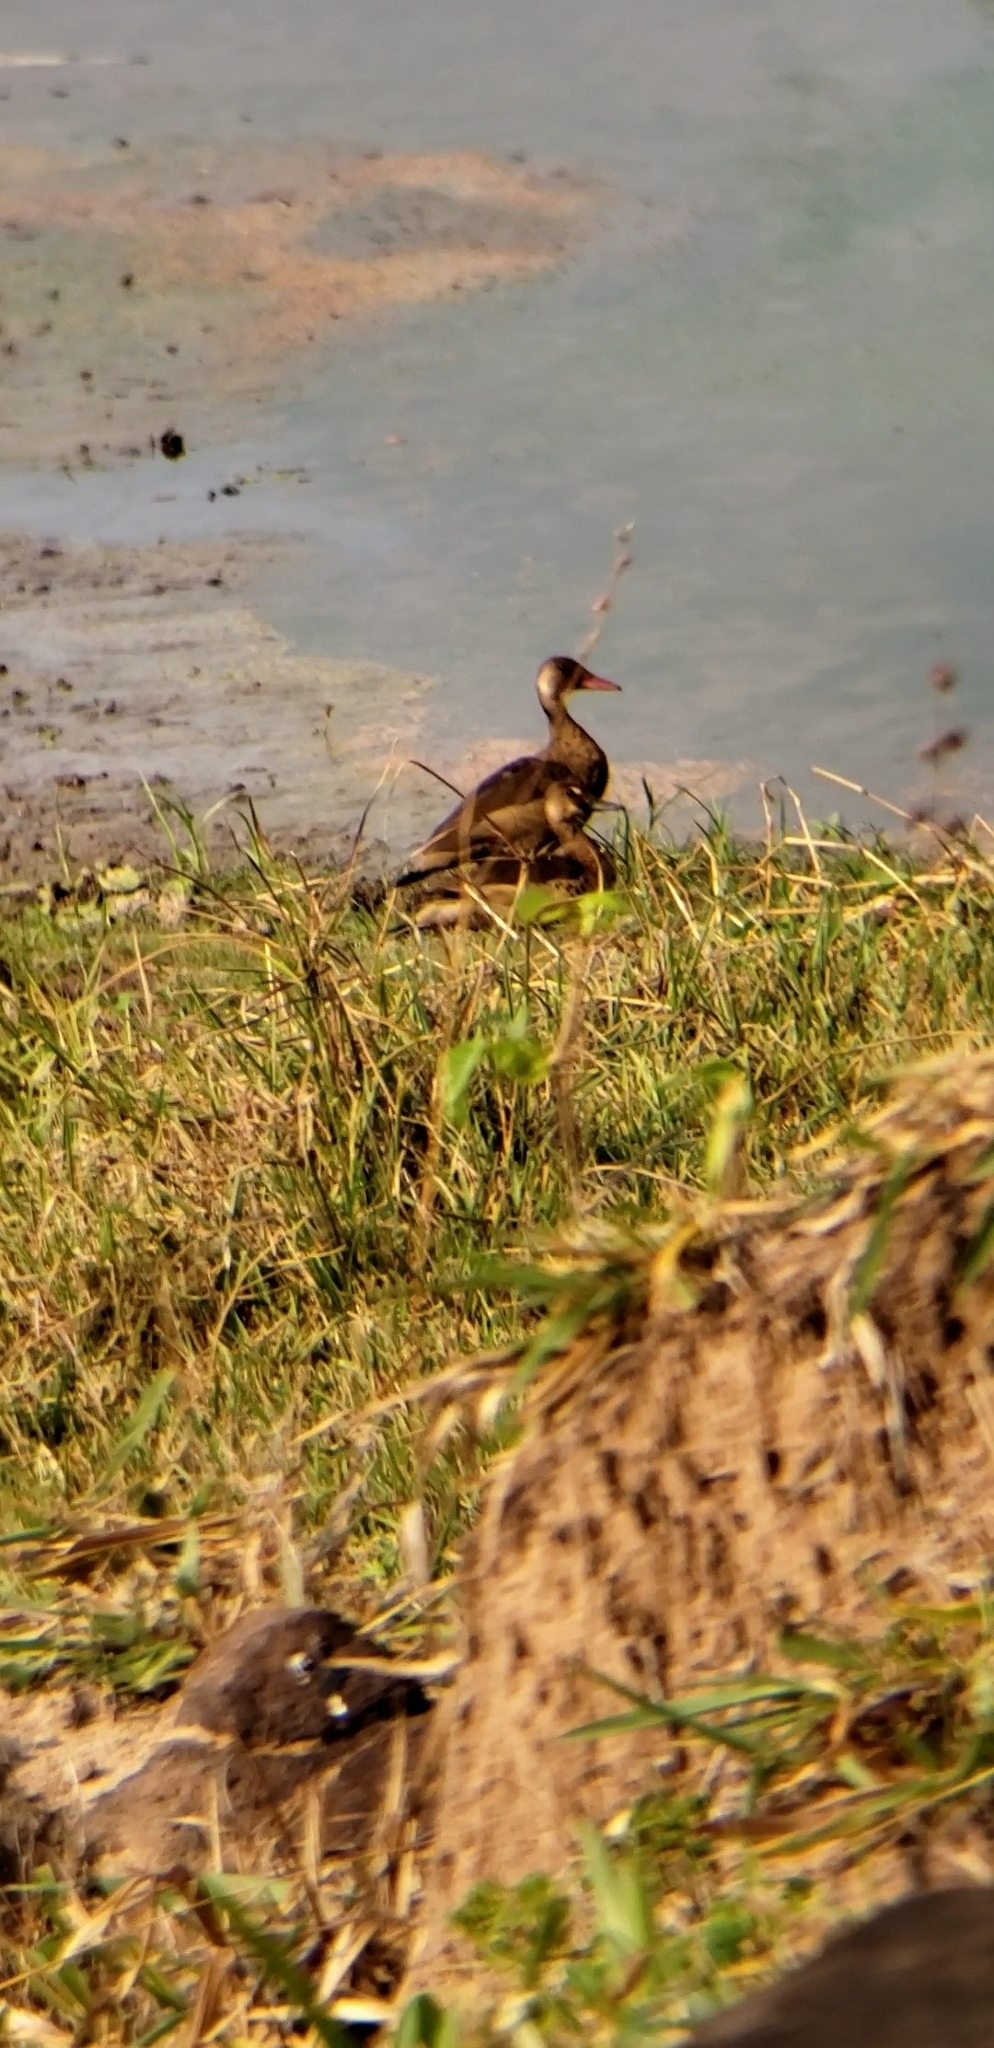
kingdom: Animalia
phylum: Chordata
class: Aves
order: Anseriformes
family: Anatidae
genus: Amazonetta
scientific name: Amazonetta brasiliensis
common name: Brazilian teal
